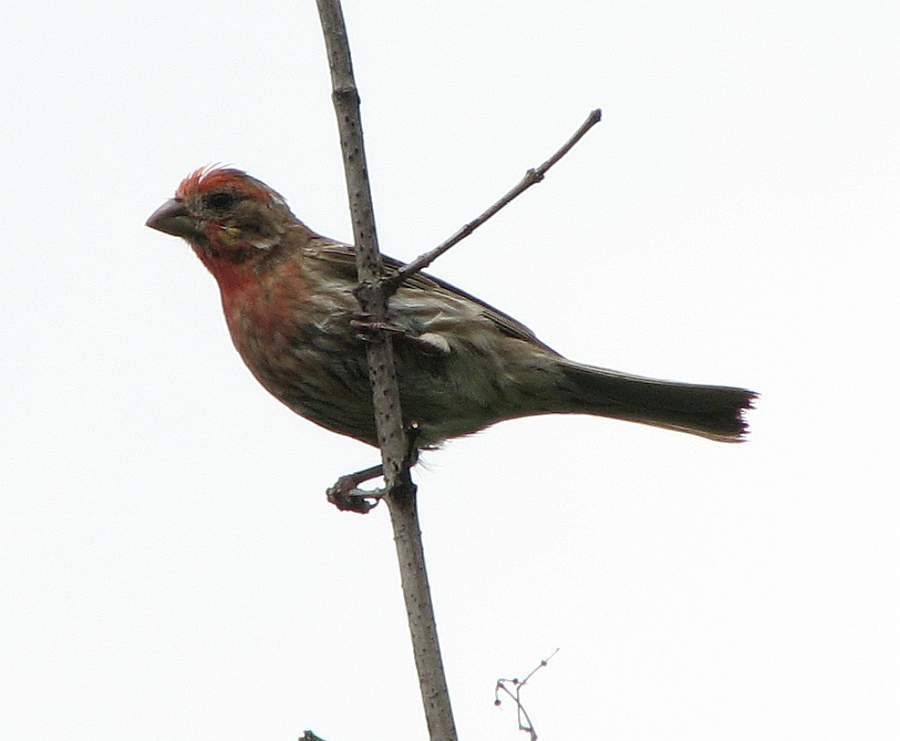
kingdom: Animalia
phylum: Chordata
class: Aves
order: Passeriformes
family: Fringillidae
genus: Haemorhous
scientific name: Haemorhous mexicanus
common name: House finch
